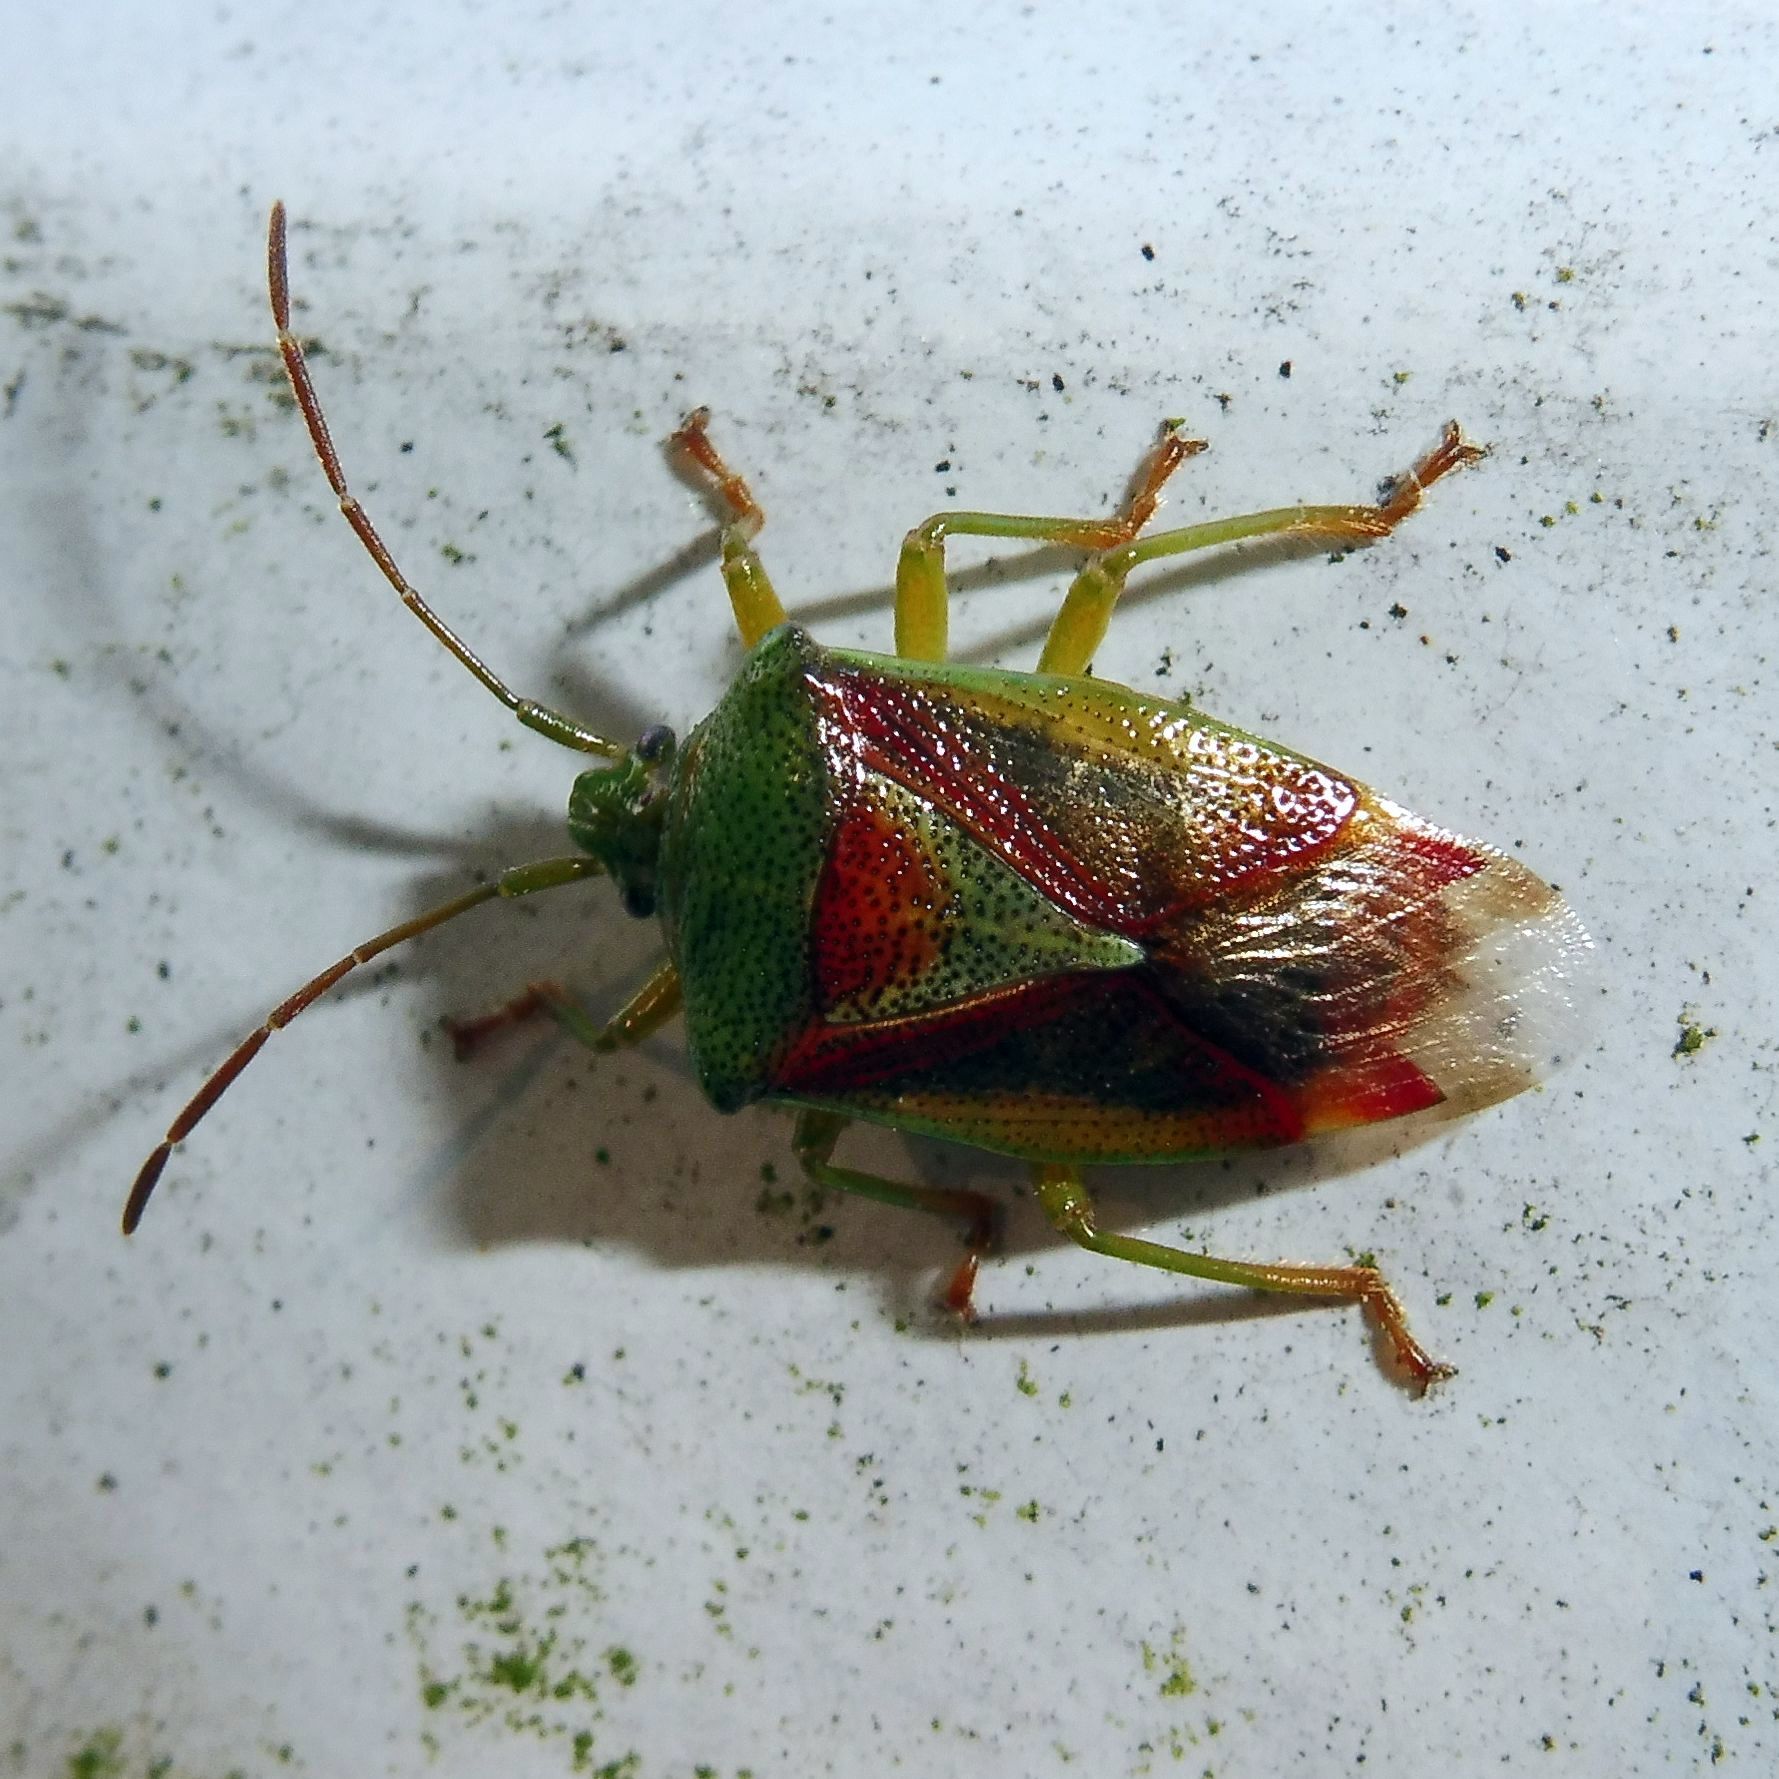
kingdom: Animalia
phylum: Arthropoda
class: Insecta
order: Hemiptera
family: Acanthosomatidae
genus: Elasmostethus
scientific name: Elasmostethus interstinctus
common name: Birch shieldbug
